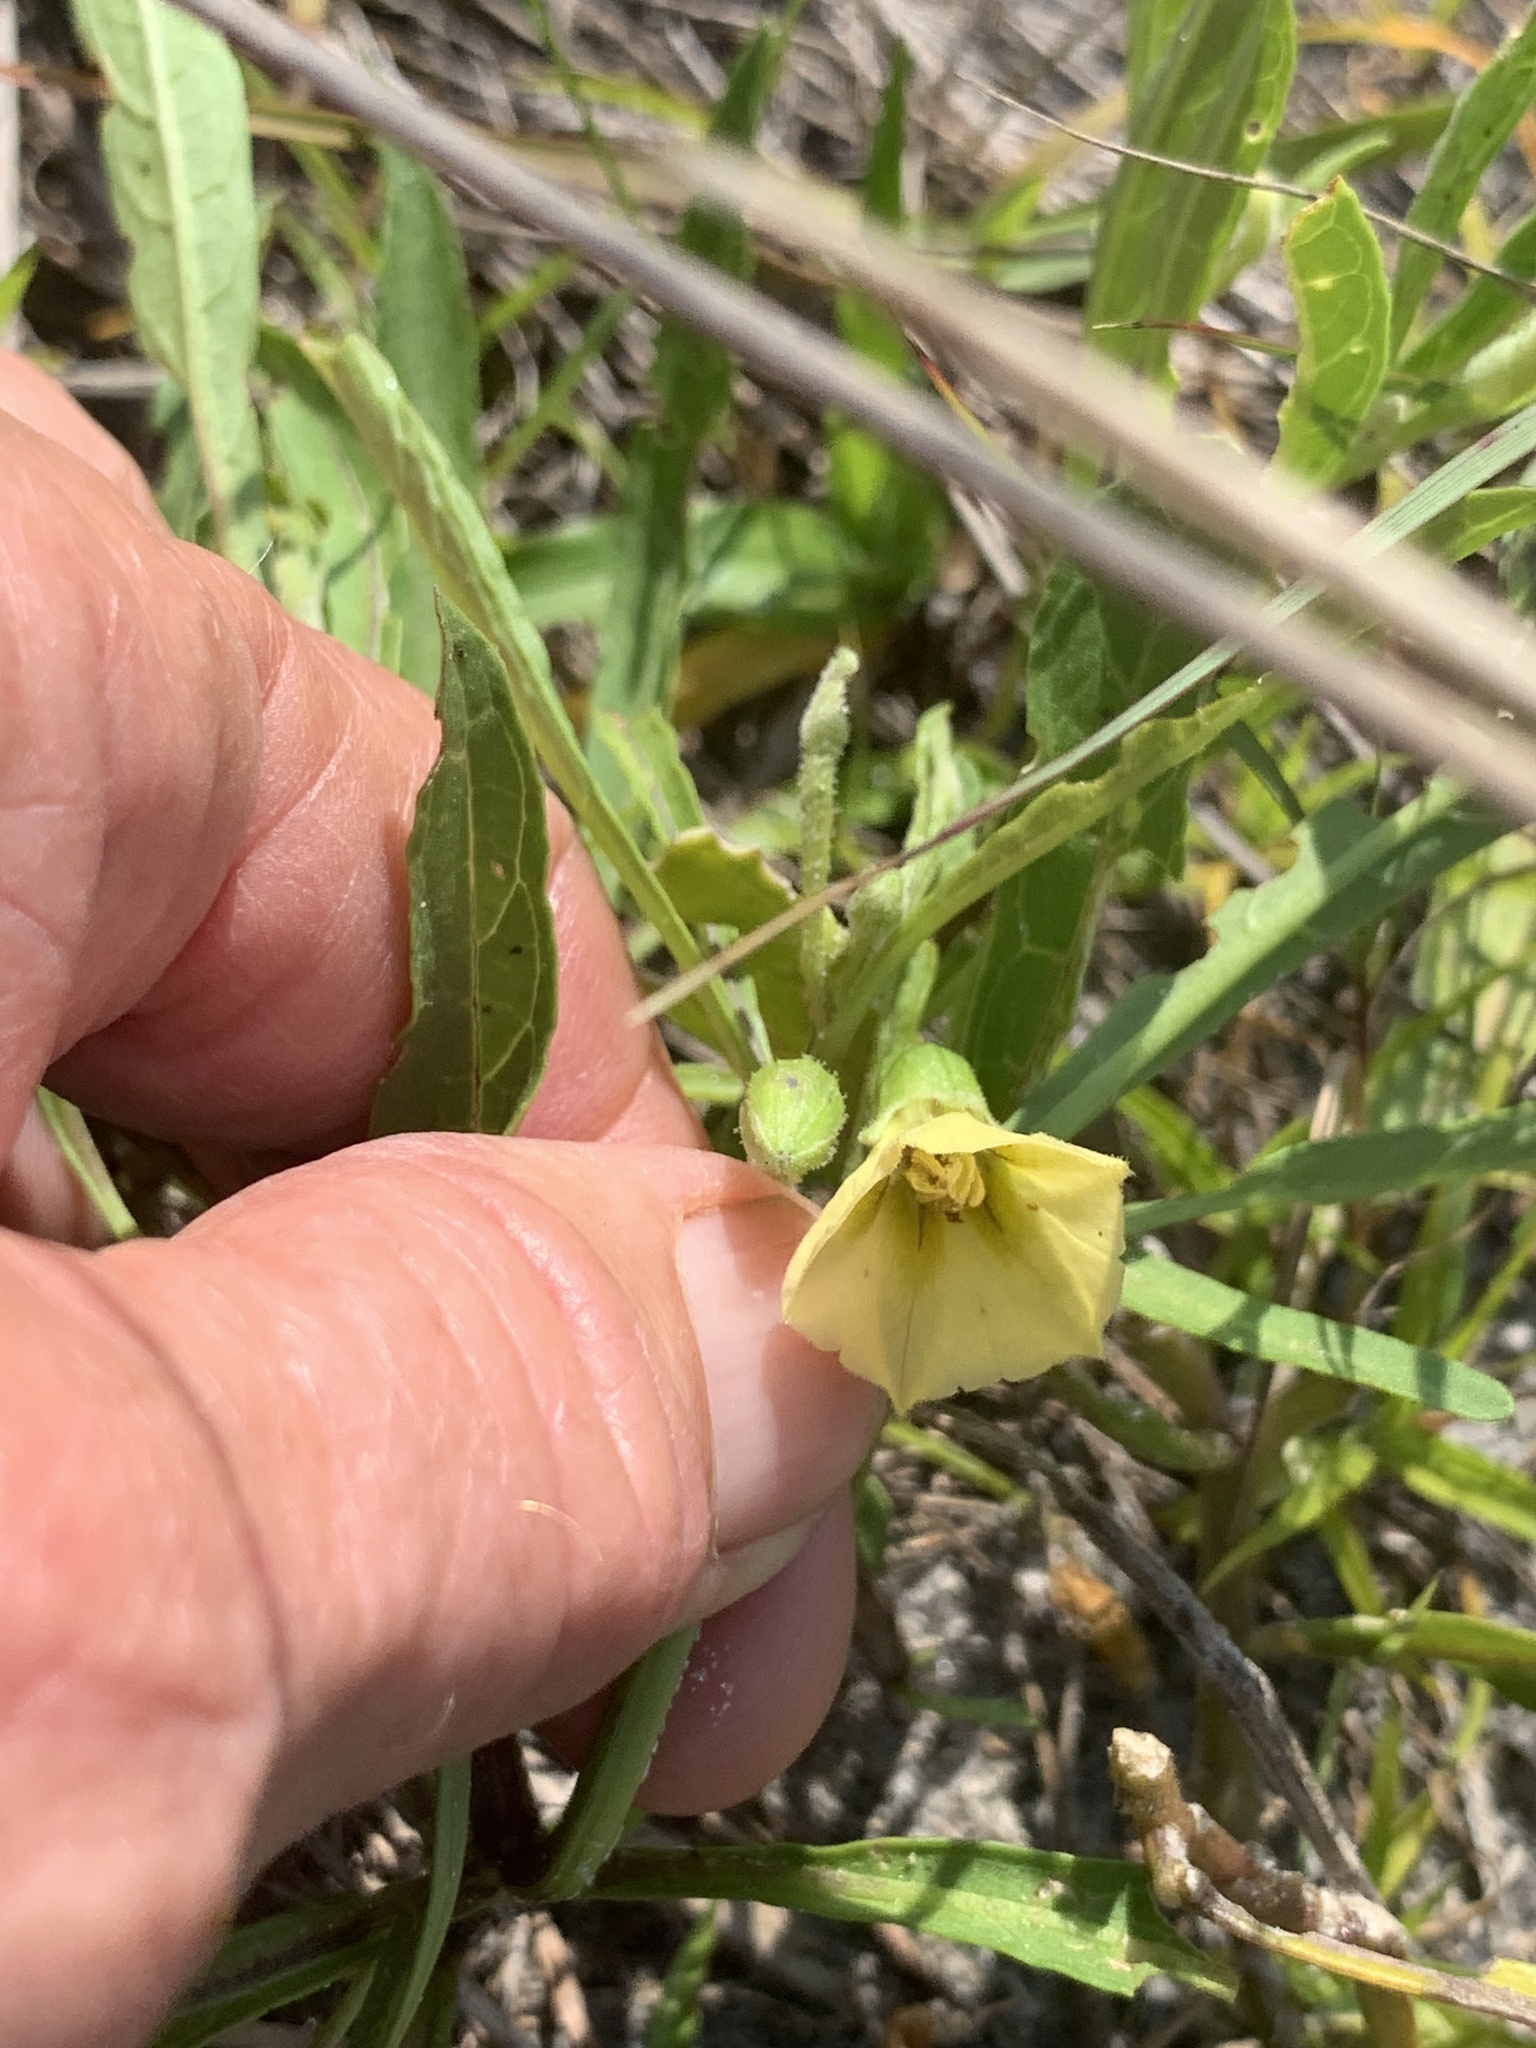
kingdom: Plantae
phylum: Tracheophyta
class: Magnoliopsida
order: Solanales
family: Solanaceae
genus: Physalis
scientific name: Physalis elliottii
